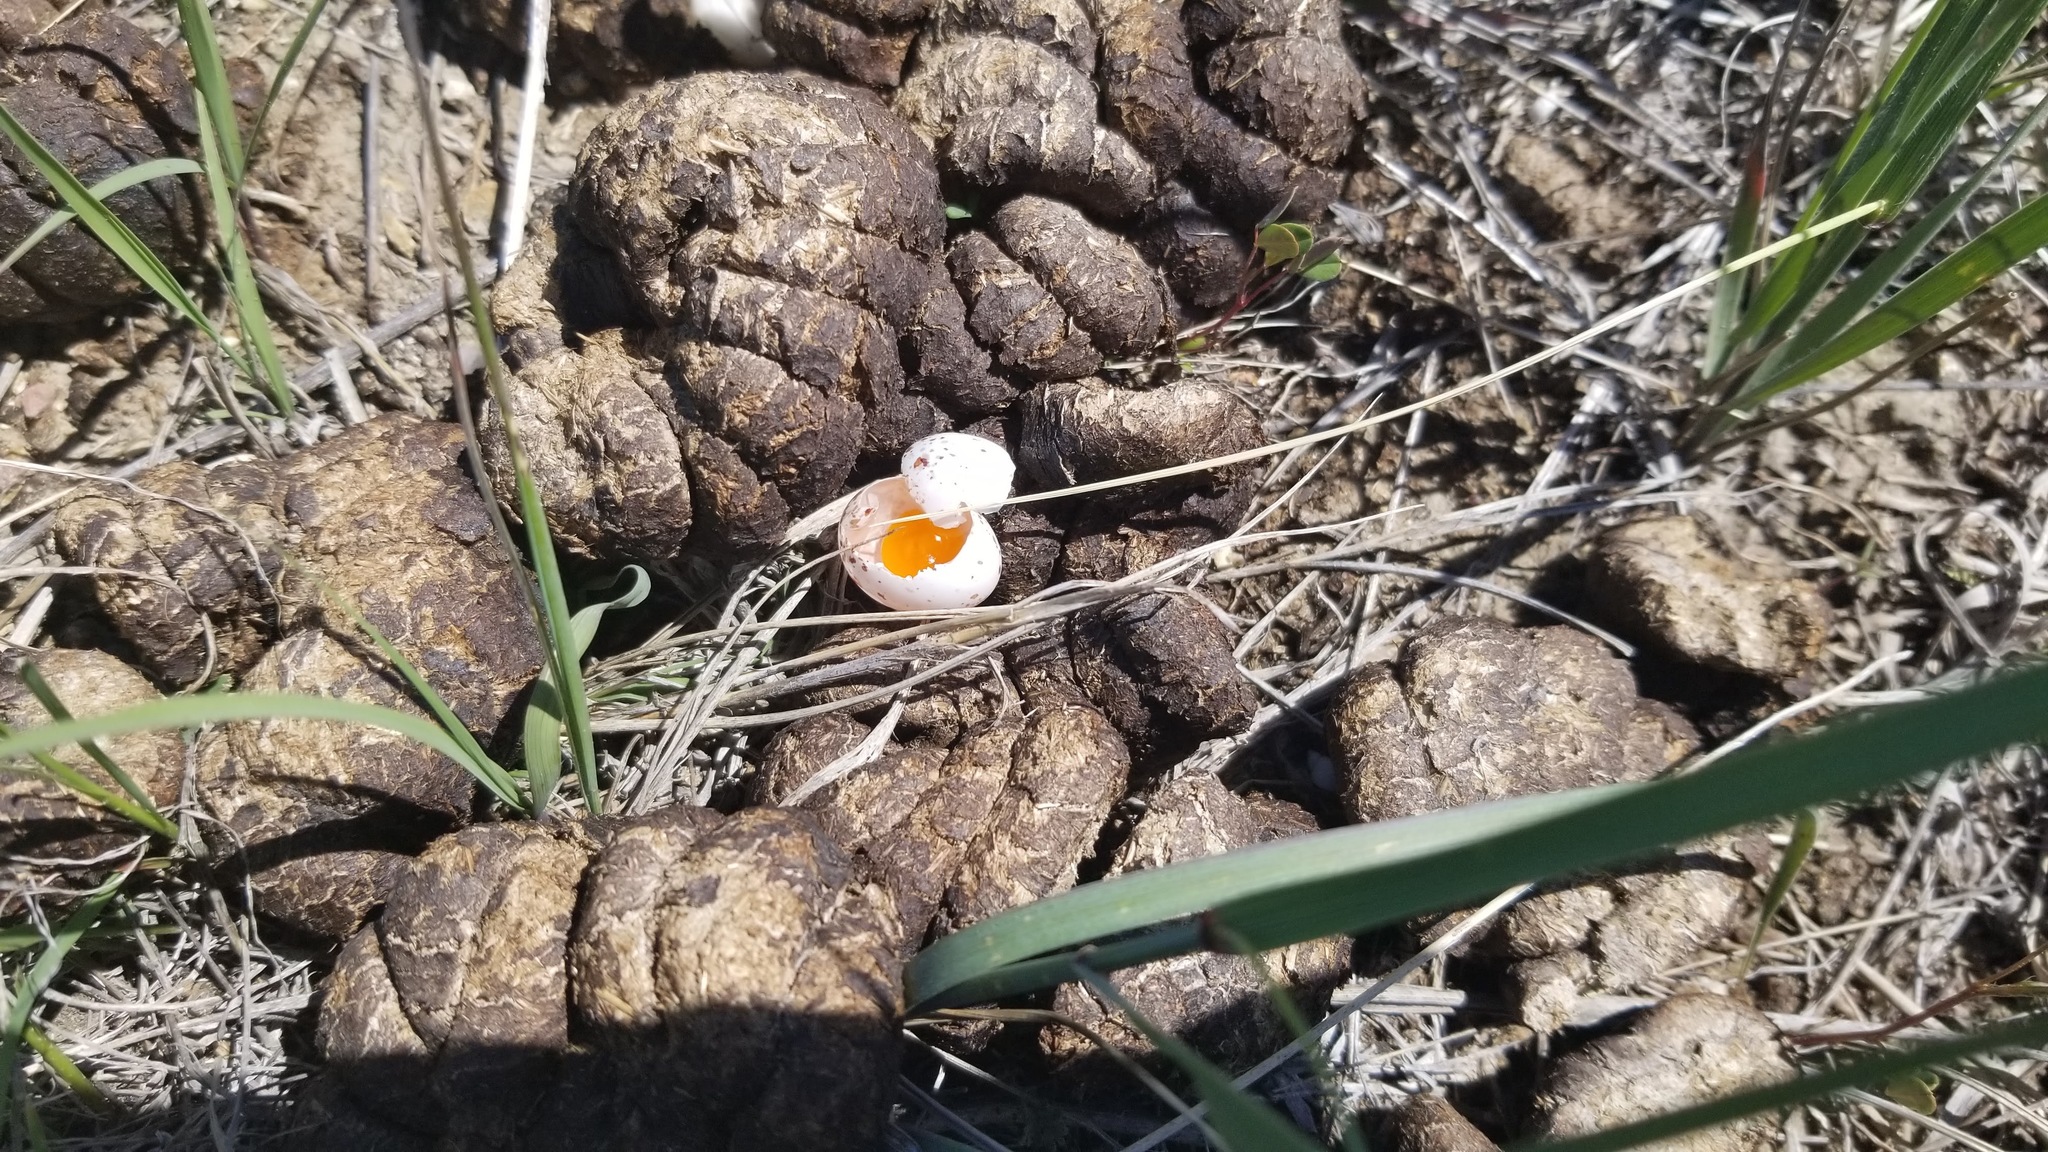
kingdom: Animalia
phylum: Chordata
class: Mammalia
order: Artiodactyla
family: Bovidae
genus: Bison
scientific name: Bison bison
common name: American bison
